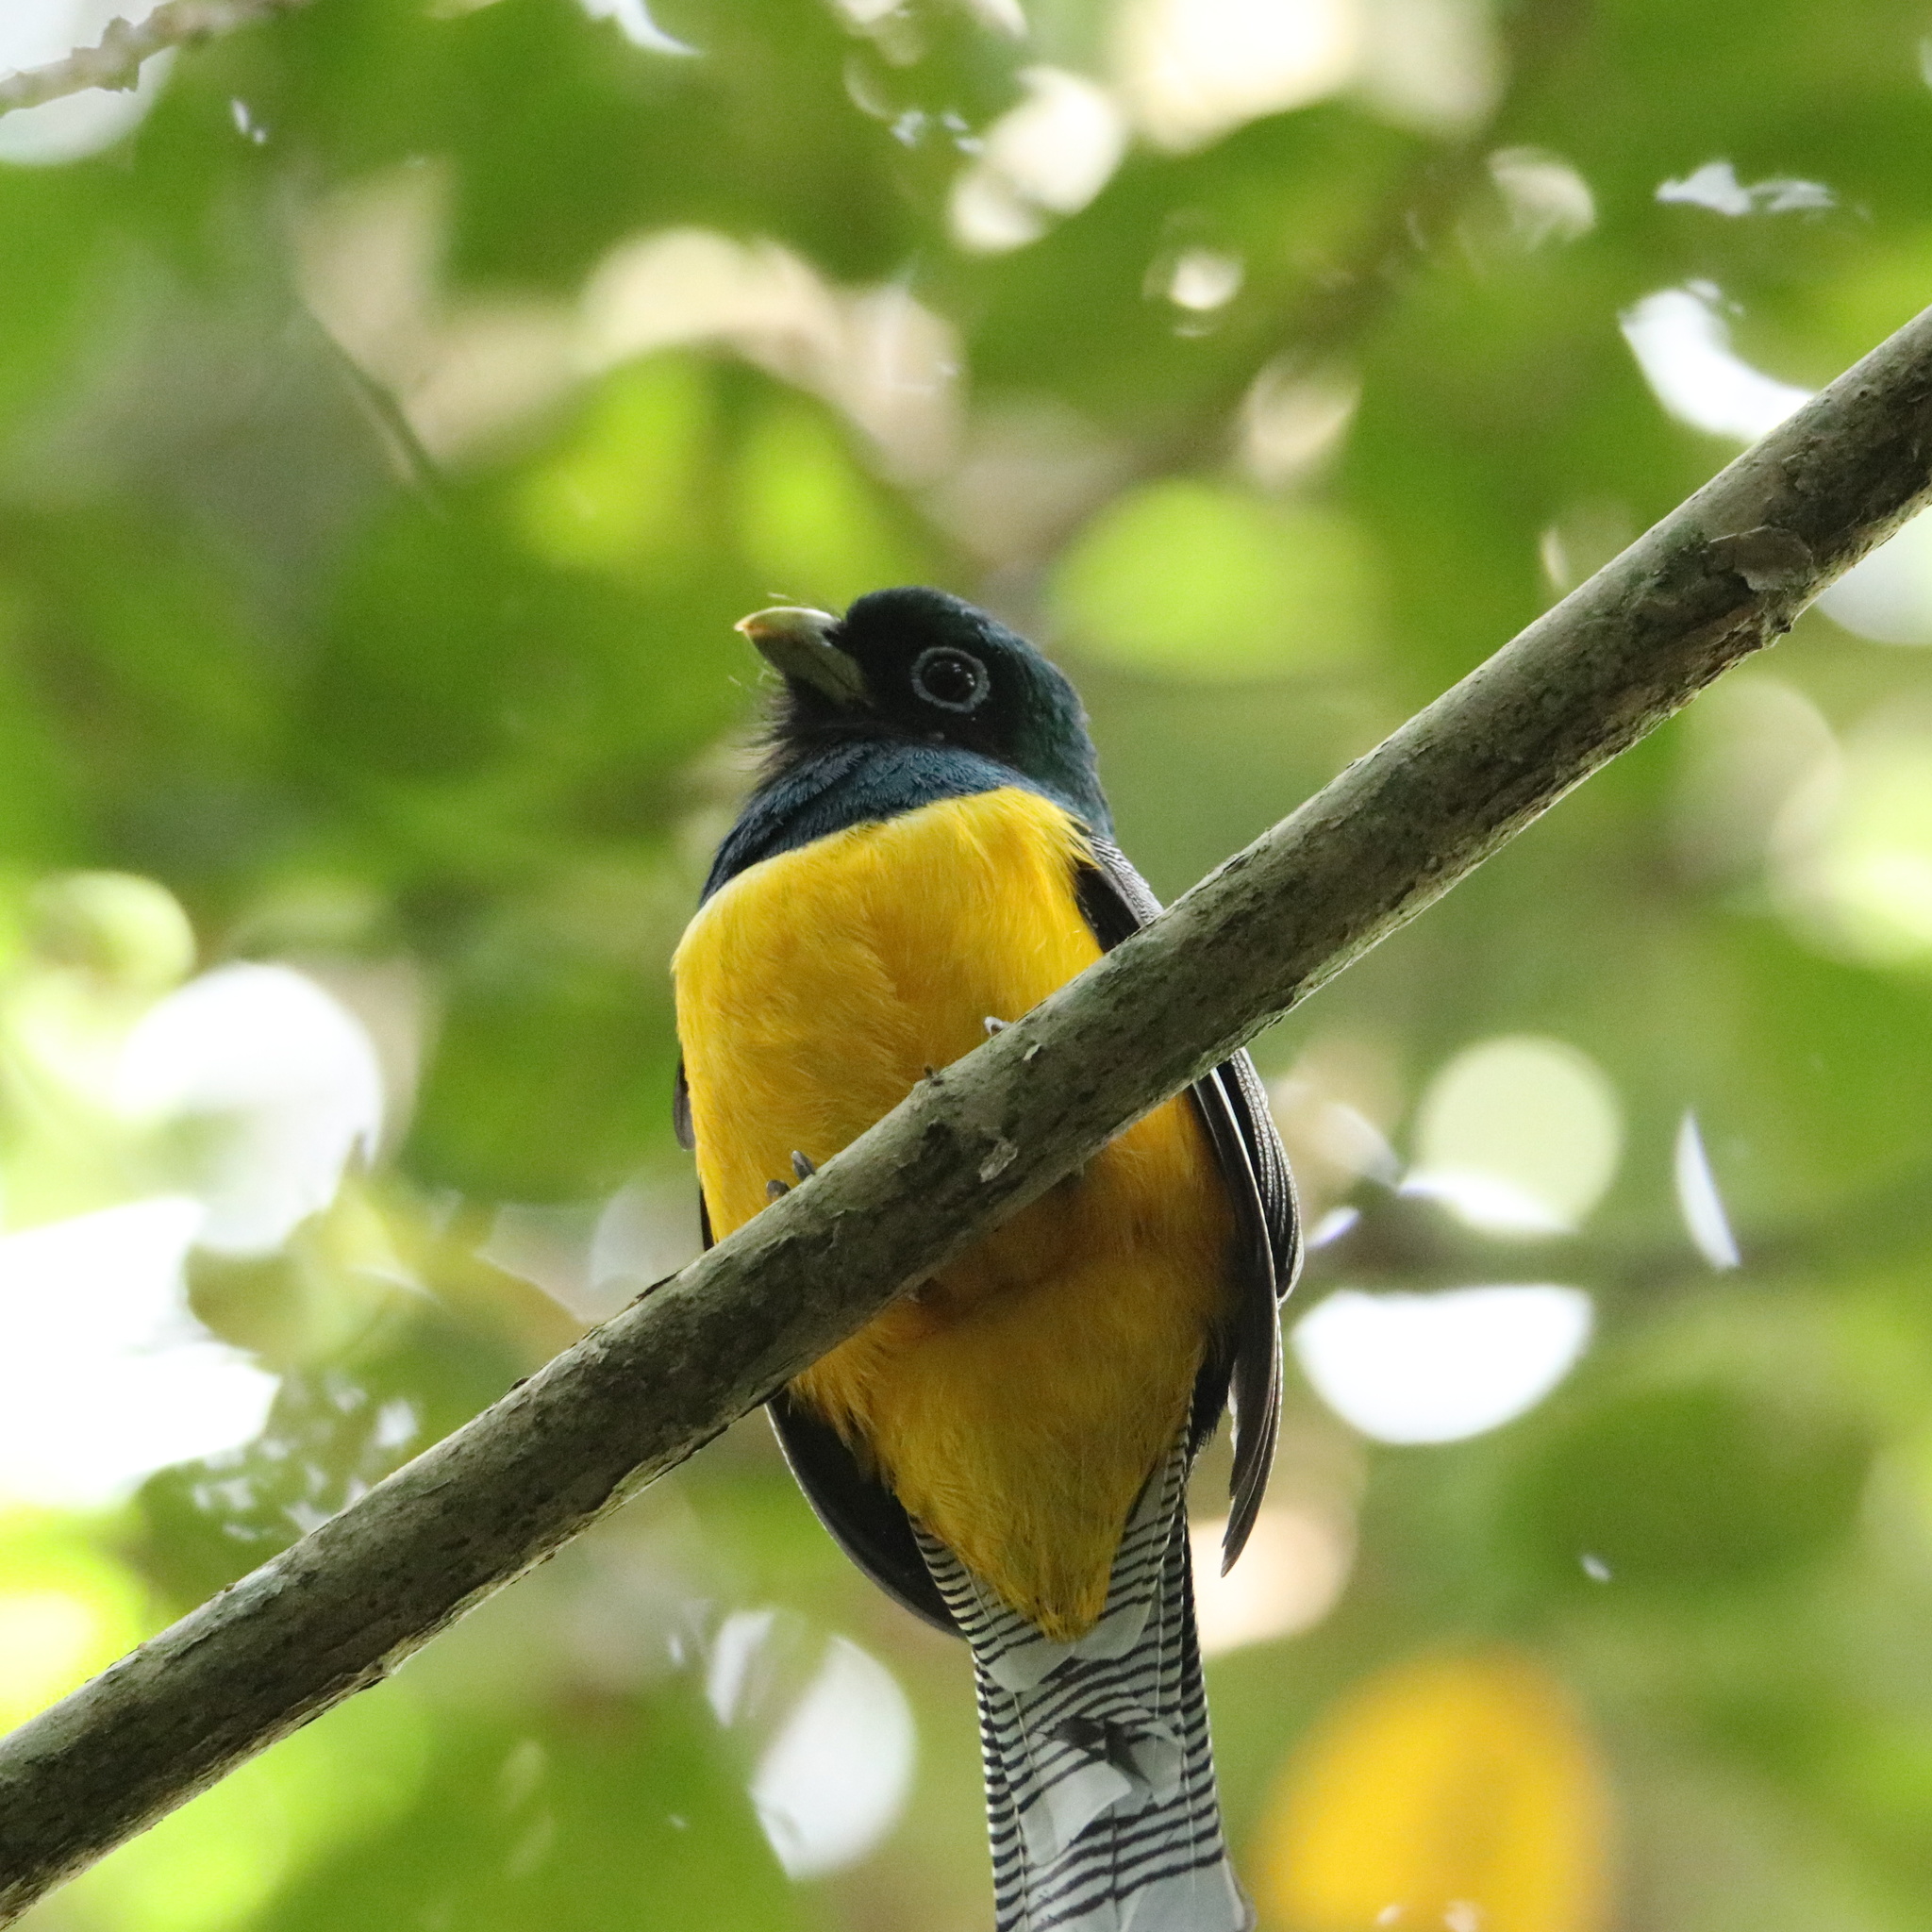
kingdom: Animalia
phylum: Chordata
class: Aves
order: Trogoniformes
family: Trogonidae
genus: Trogon
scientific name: Trogon rufus
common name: Black-throated trogon
